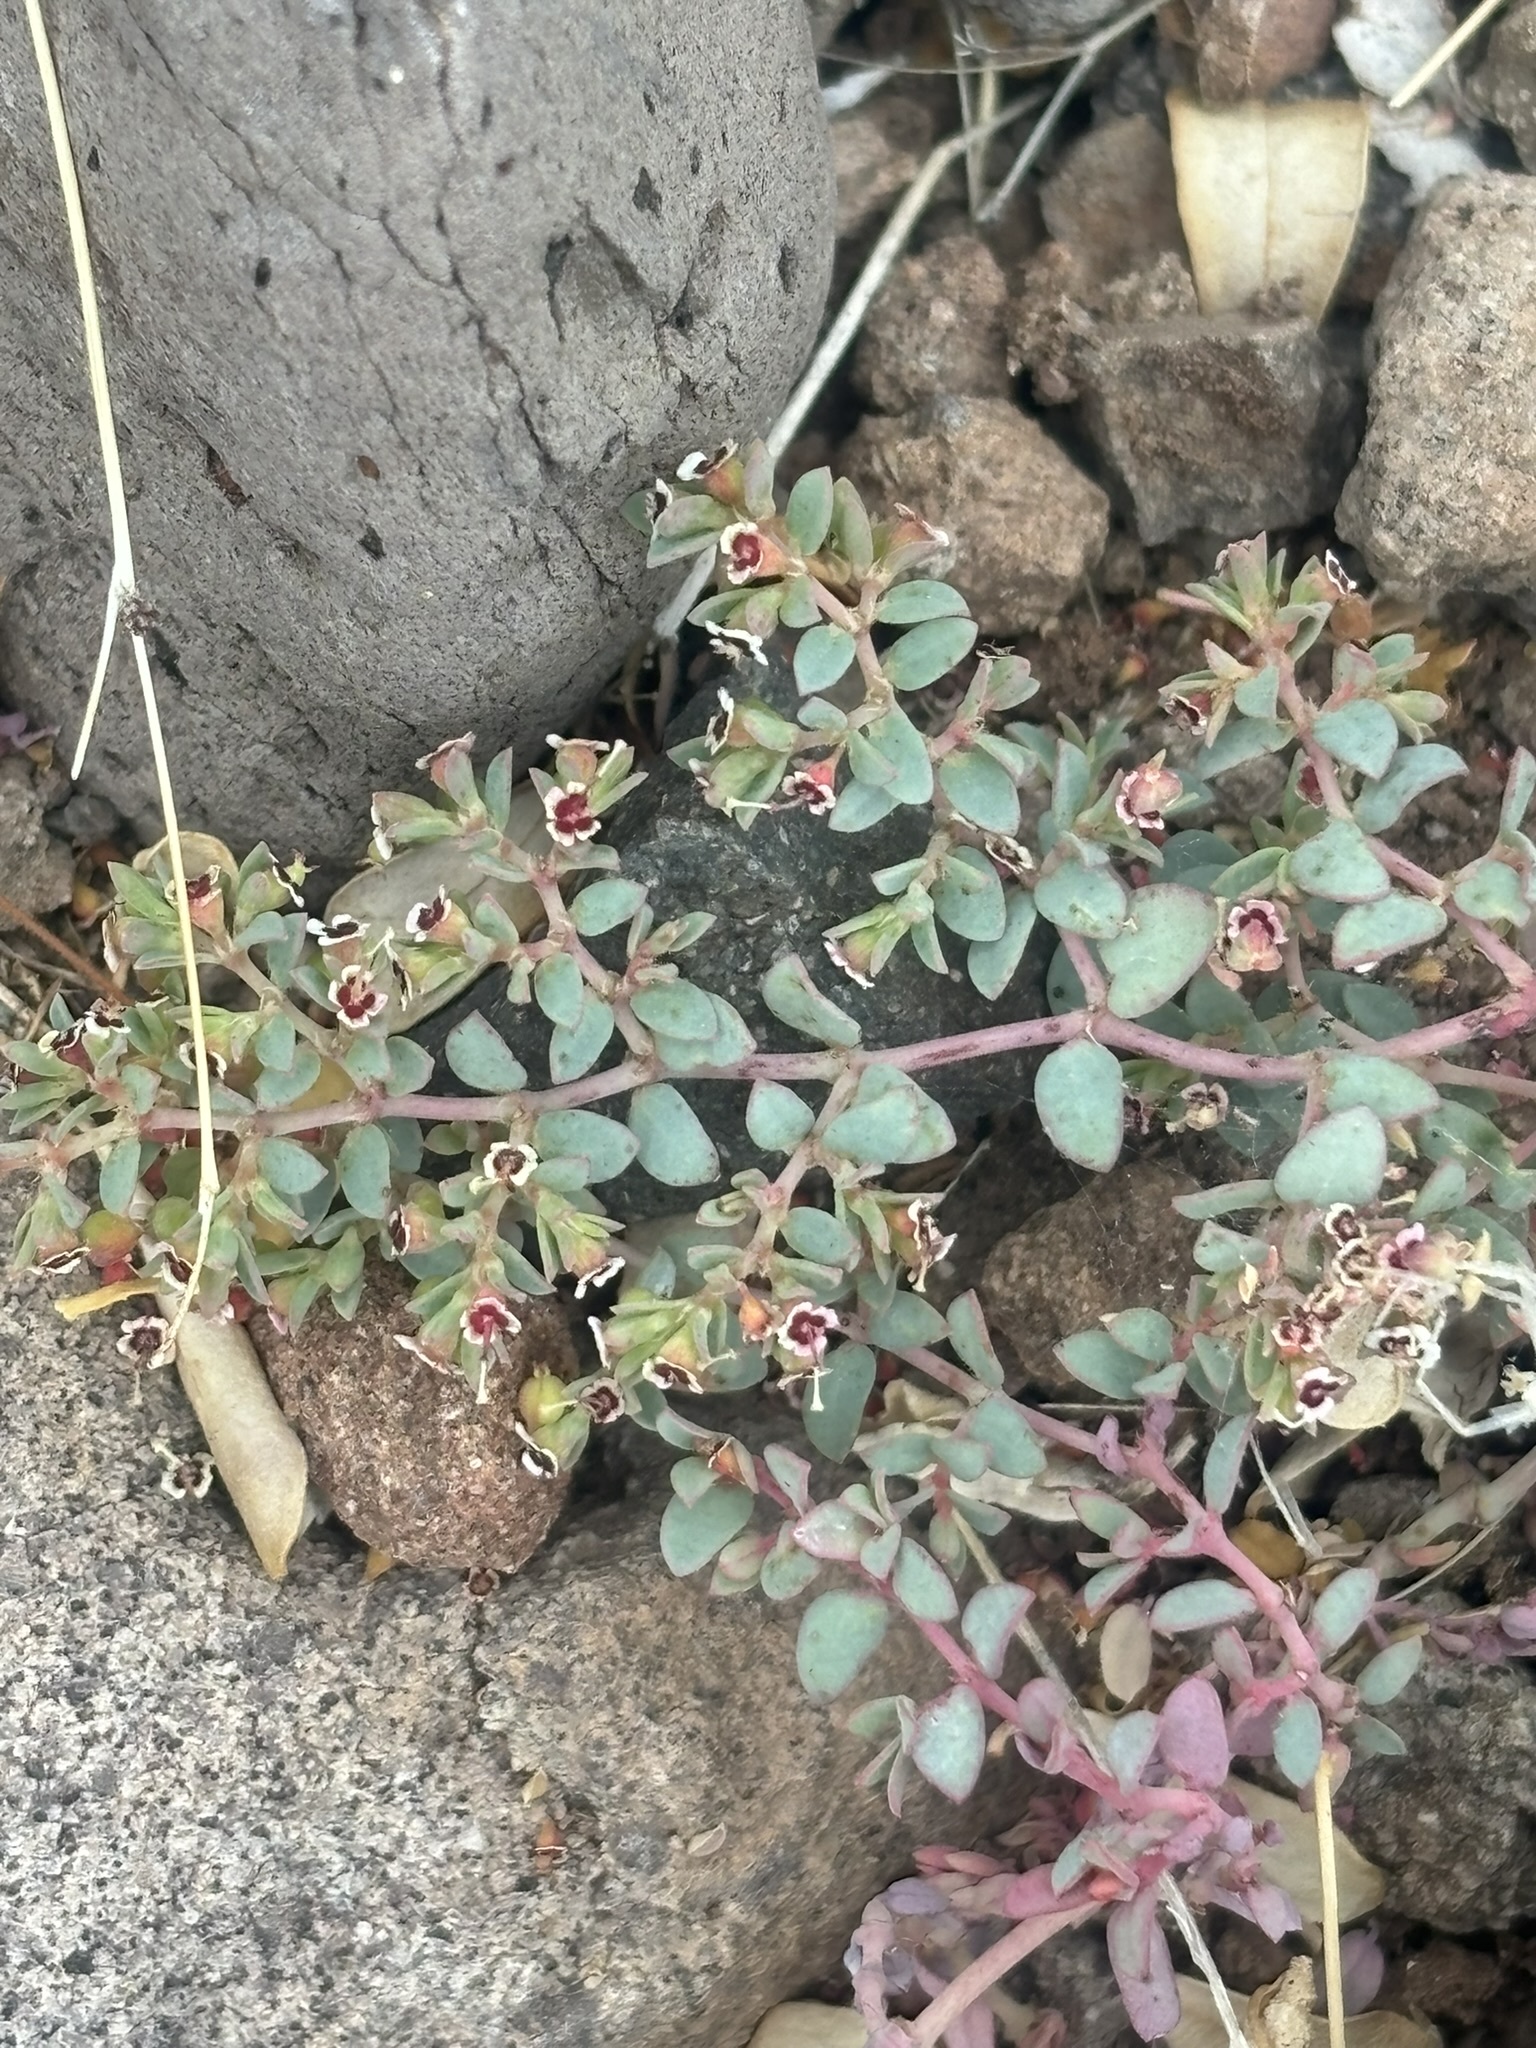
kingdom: Plantae
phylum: Tracheophyta
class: Magnoliopsida
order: Malpighiales
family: Euphorbiaceae
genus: Euphorbia
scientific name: Euphorbia polycarpa
